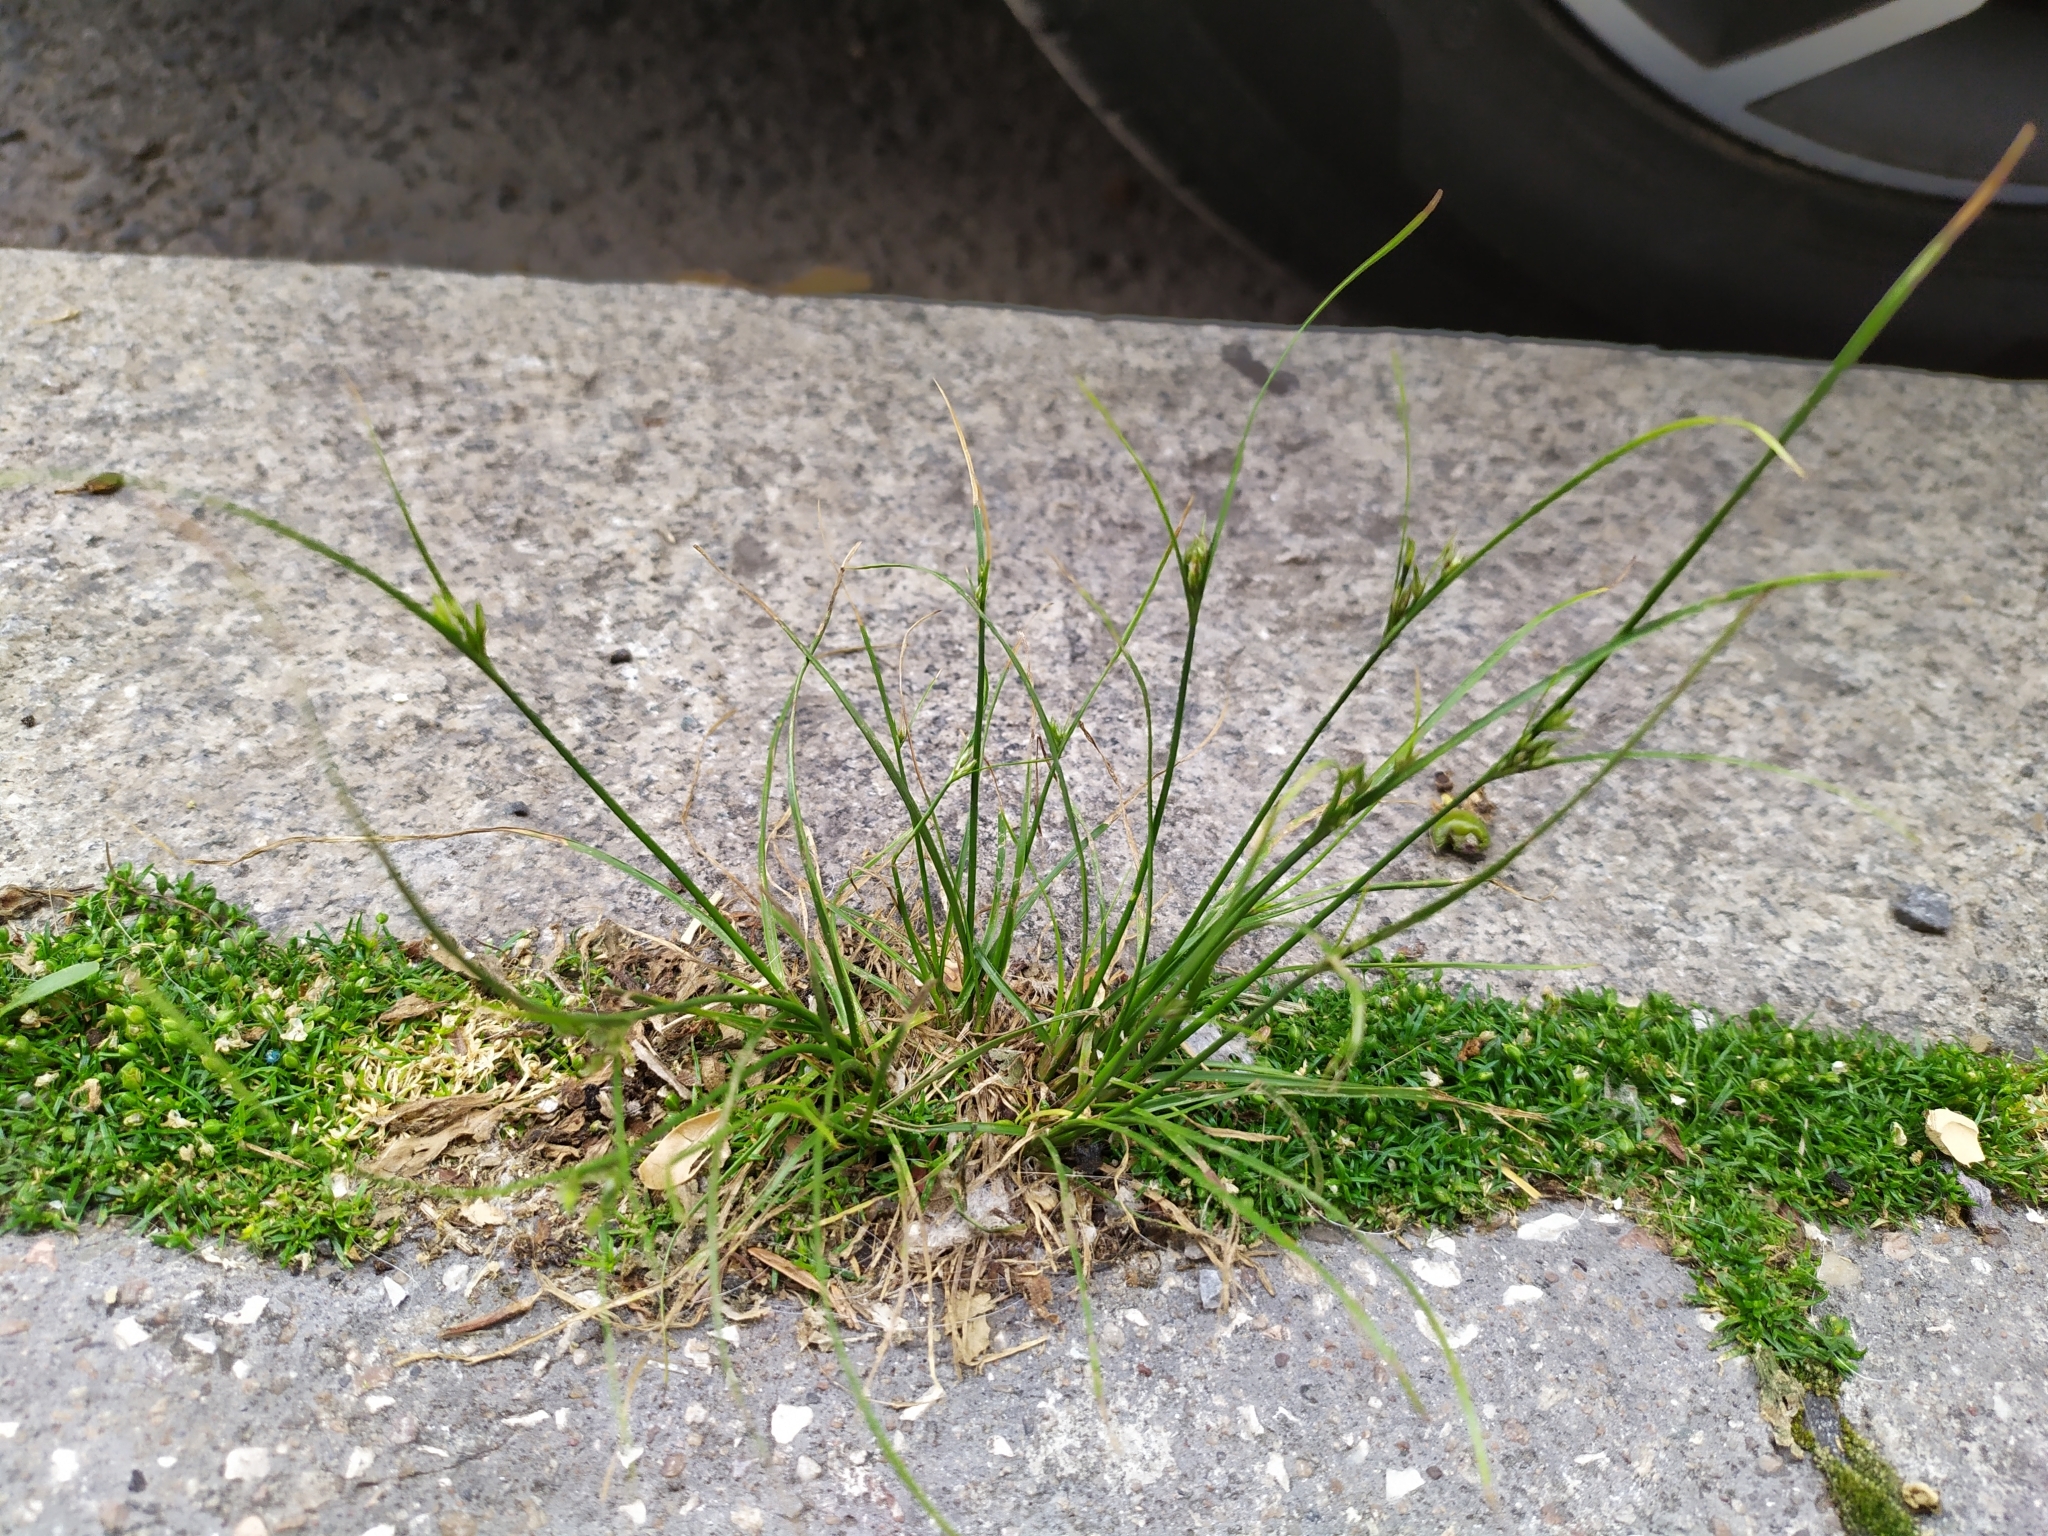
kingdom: Plantae
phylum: Tracheophyta
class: Liliopsida
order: Poales
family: Juncaceae
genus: Juncus
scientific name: Juncus tenuis
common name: Slender rush
